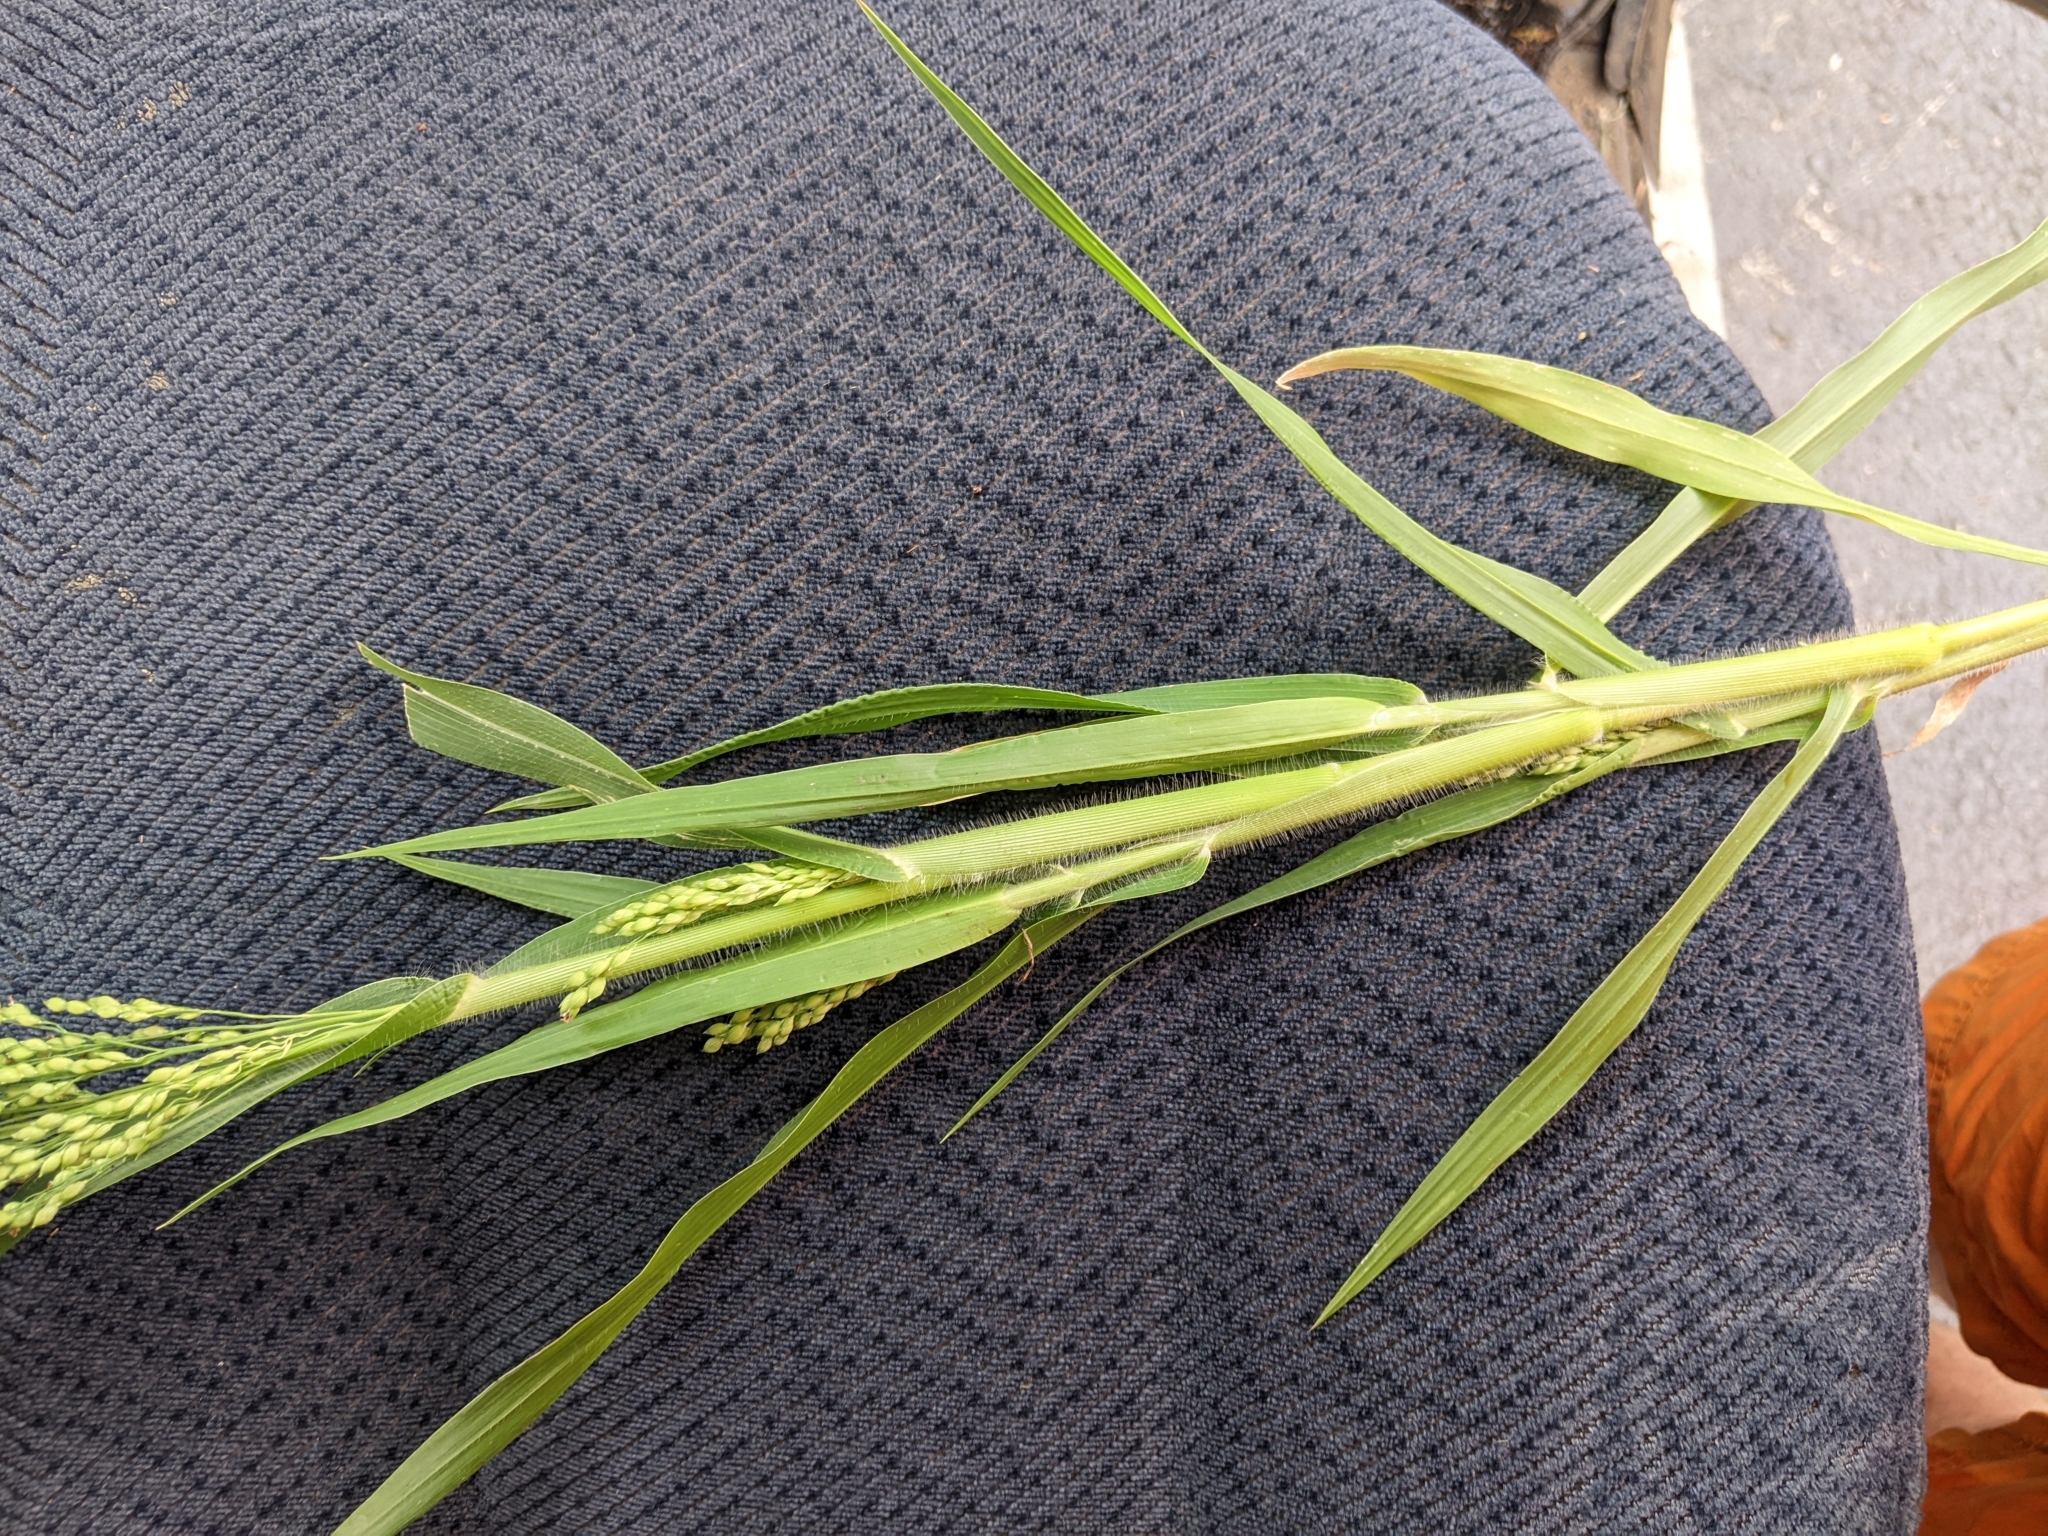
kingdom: Plantae
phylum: Tracheophyta
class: Liliopsida
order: Poales
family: Poaceae
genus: Panicum
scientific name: Panicum miliaceum
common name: Common millet
